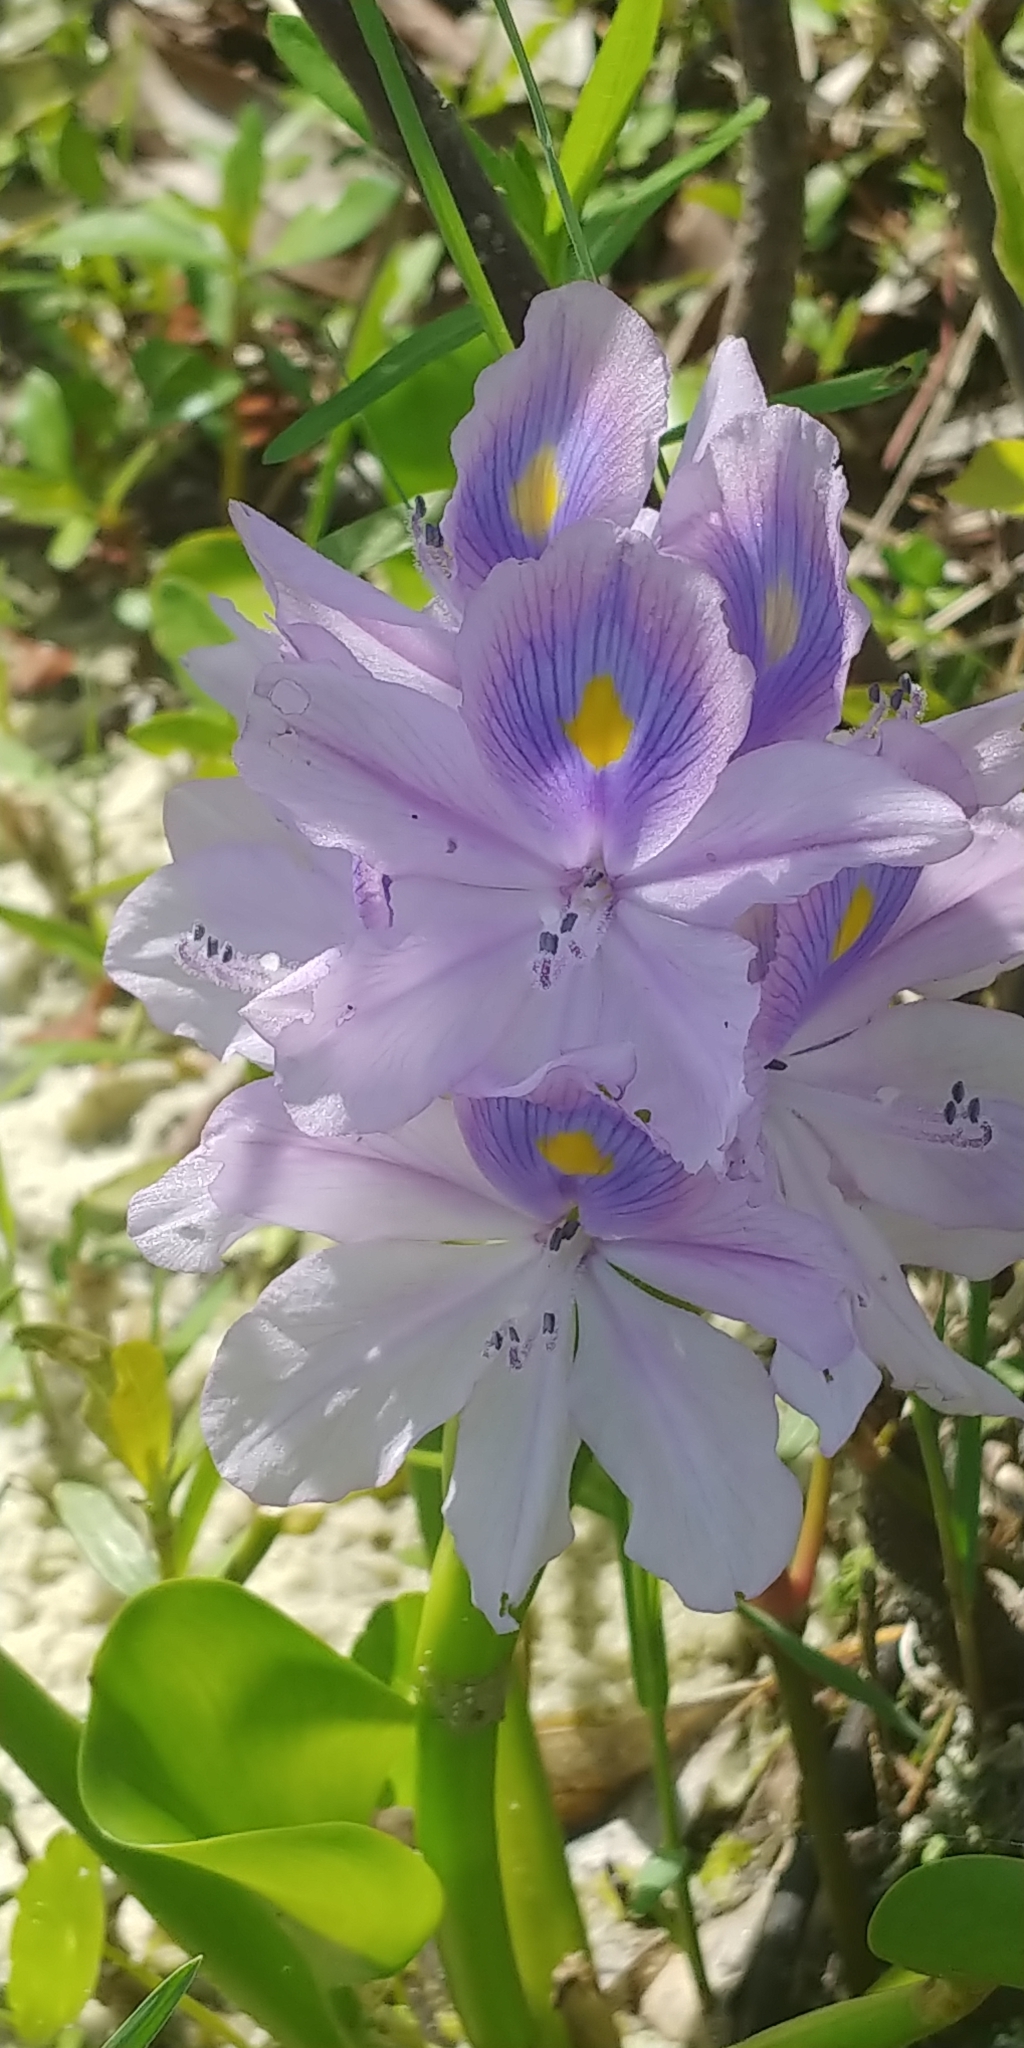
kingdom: Plantae
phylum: Tracheophyta
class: Liliopsida
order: Commelinales
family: Pontederiaceae
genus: Pontederia
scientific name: Pontederia crassipes
